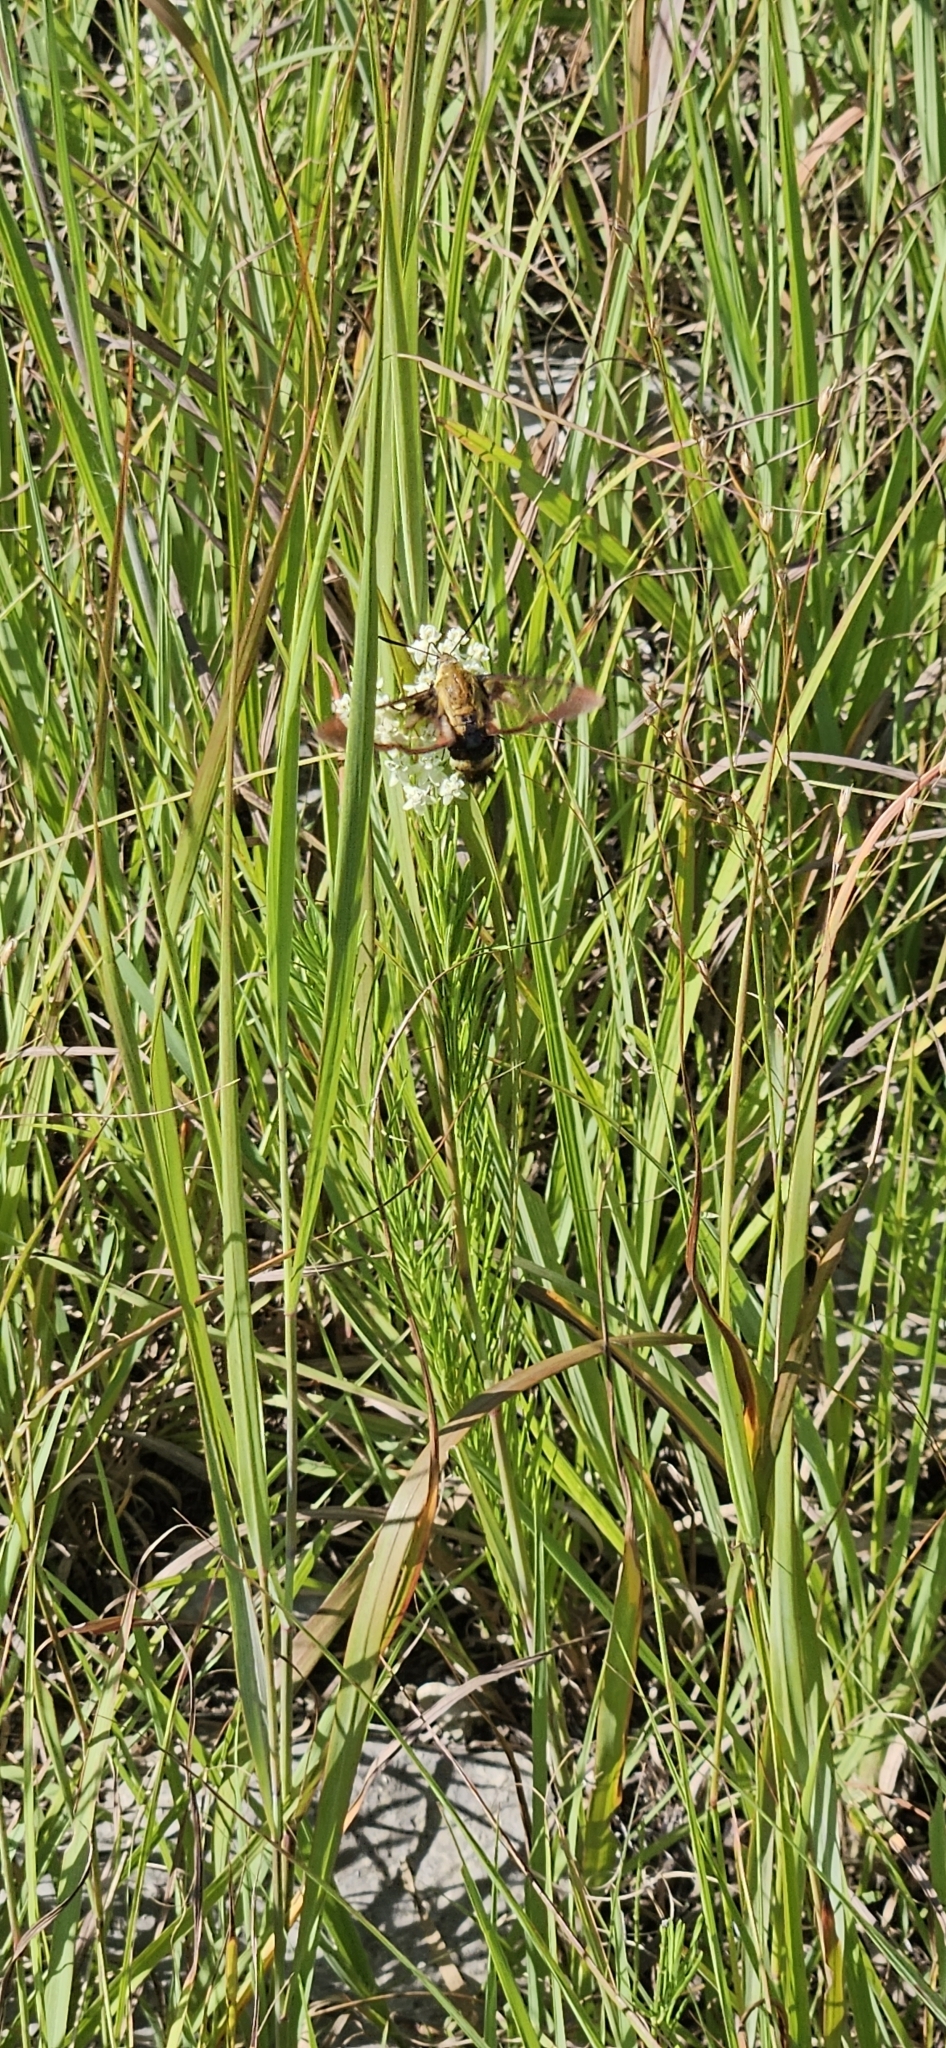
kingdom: Animalia
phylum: Arthropoda
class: Insecta
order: Lepidoptera
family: Sphingidae
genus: Hemaris
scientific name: Hemaris diffinis
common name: Bumblebee moth
